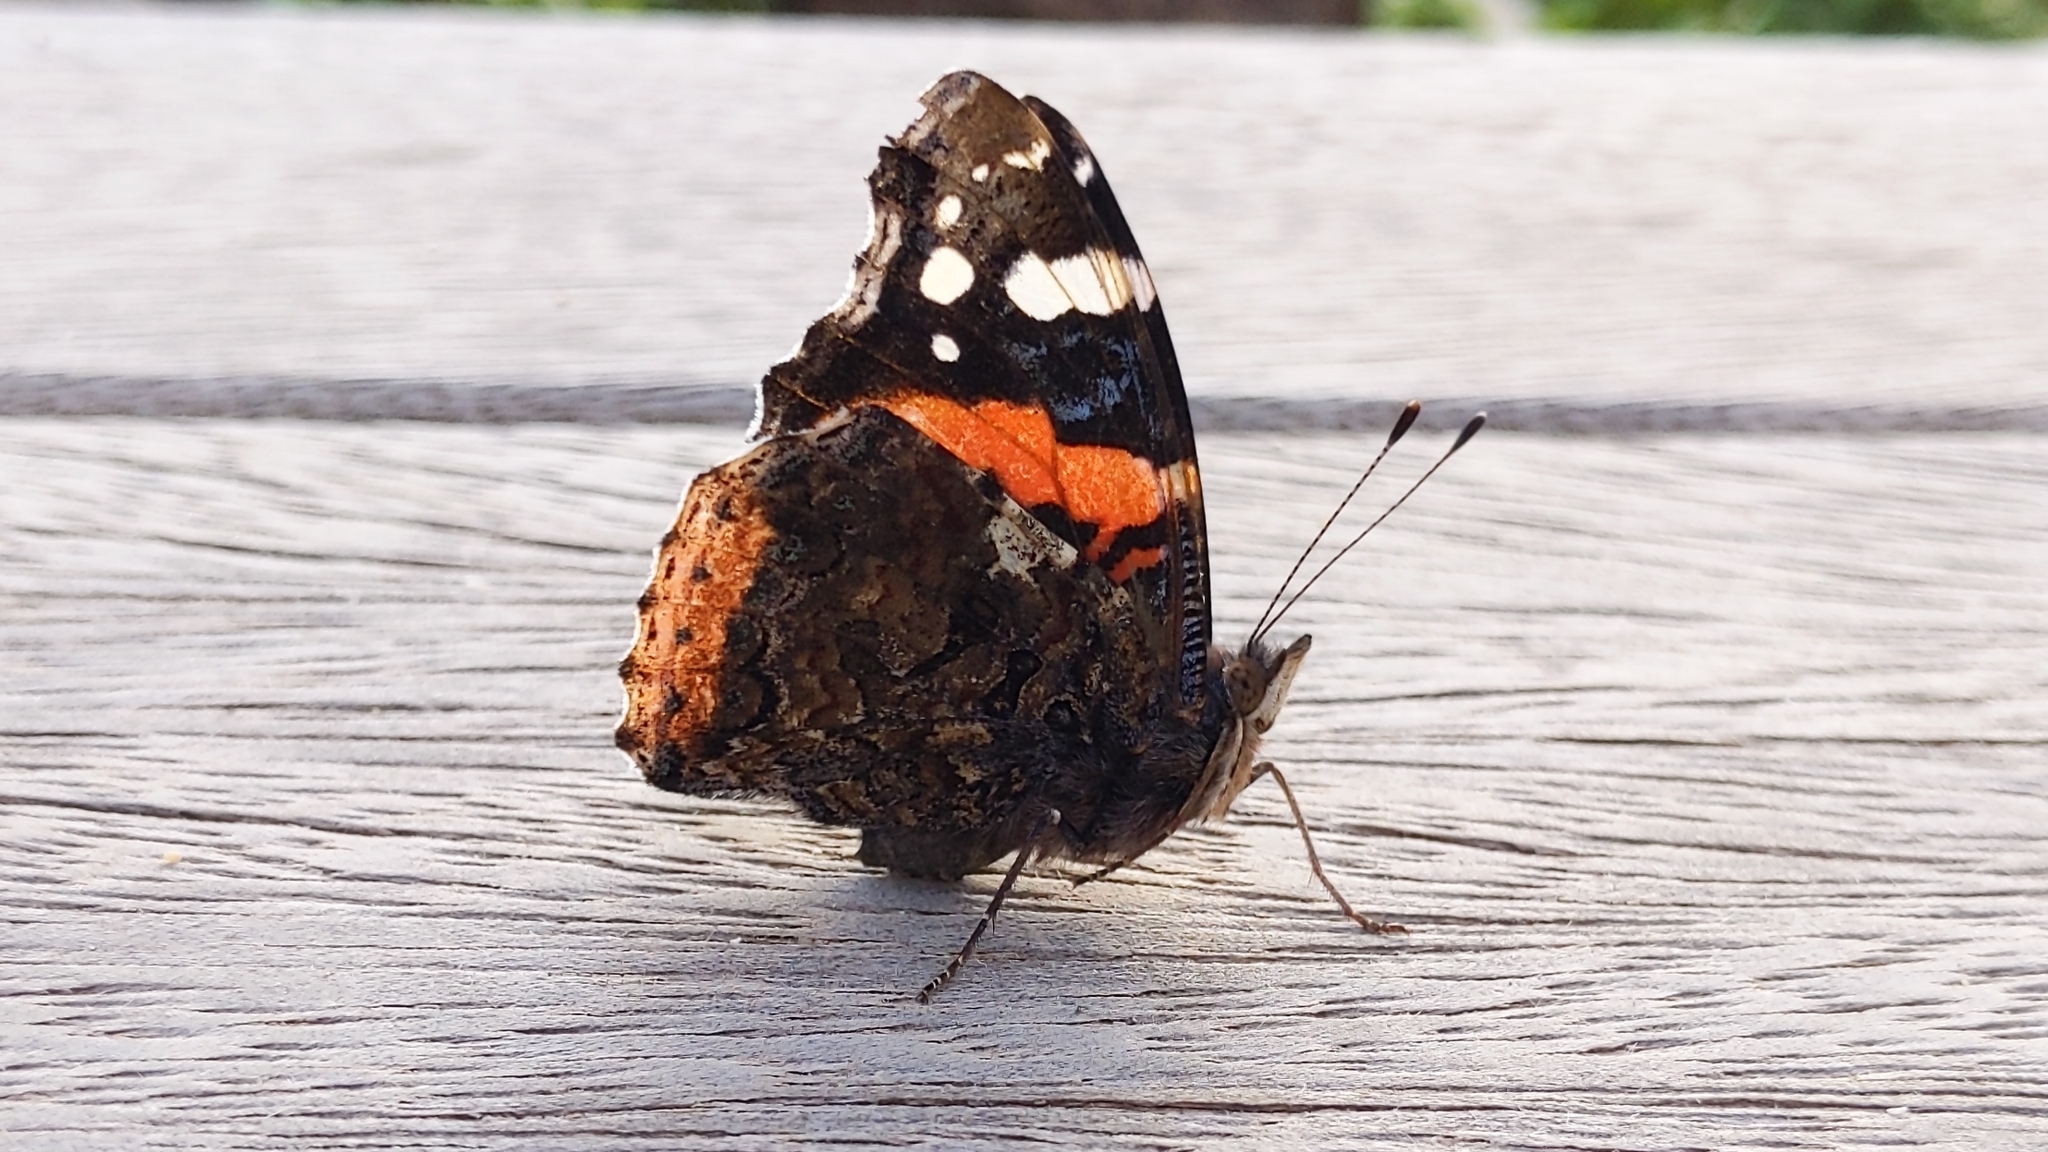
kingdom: Animalia
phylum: Arthropoda
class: Insecta
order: Lepidoptera
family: Nymphalidae
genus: Vanessa
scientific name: Vanessa atalanta
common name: Red admiral
